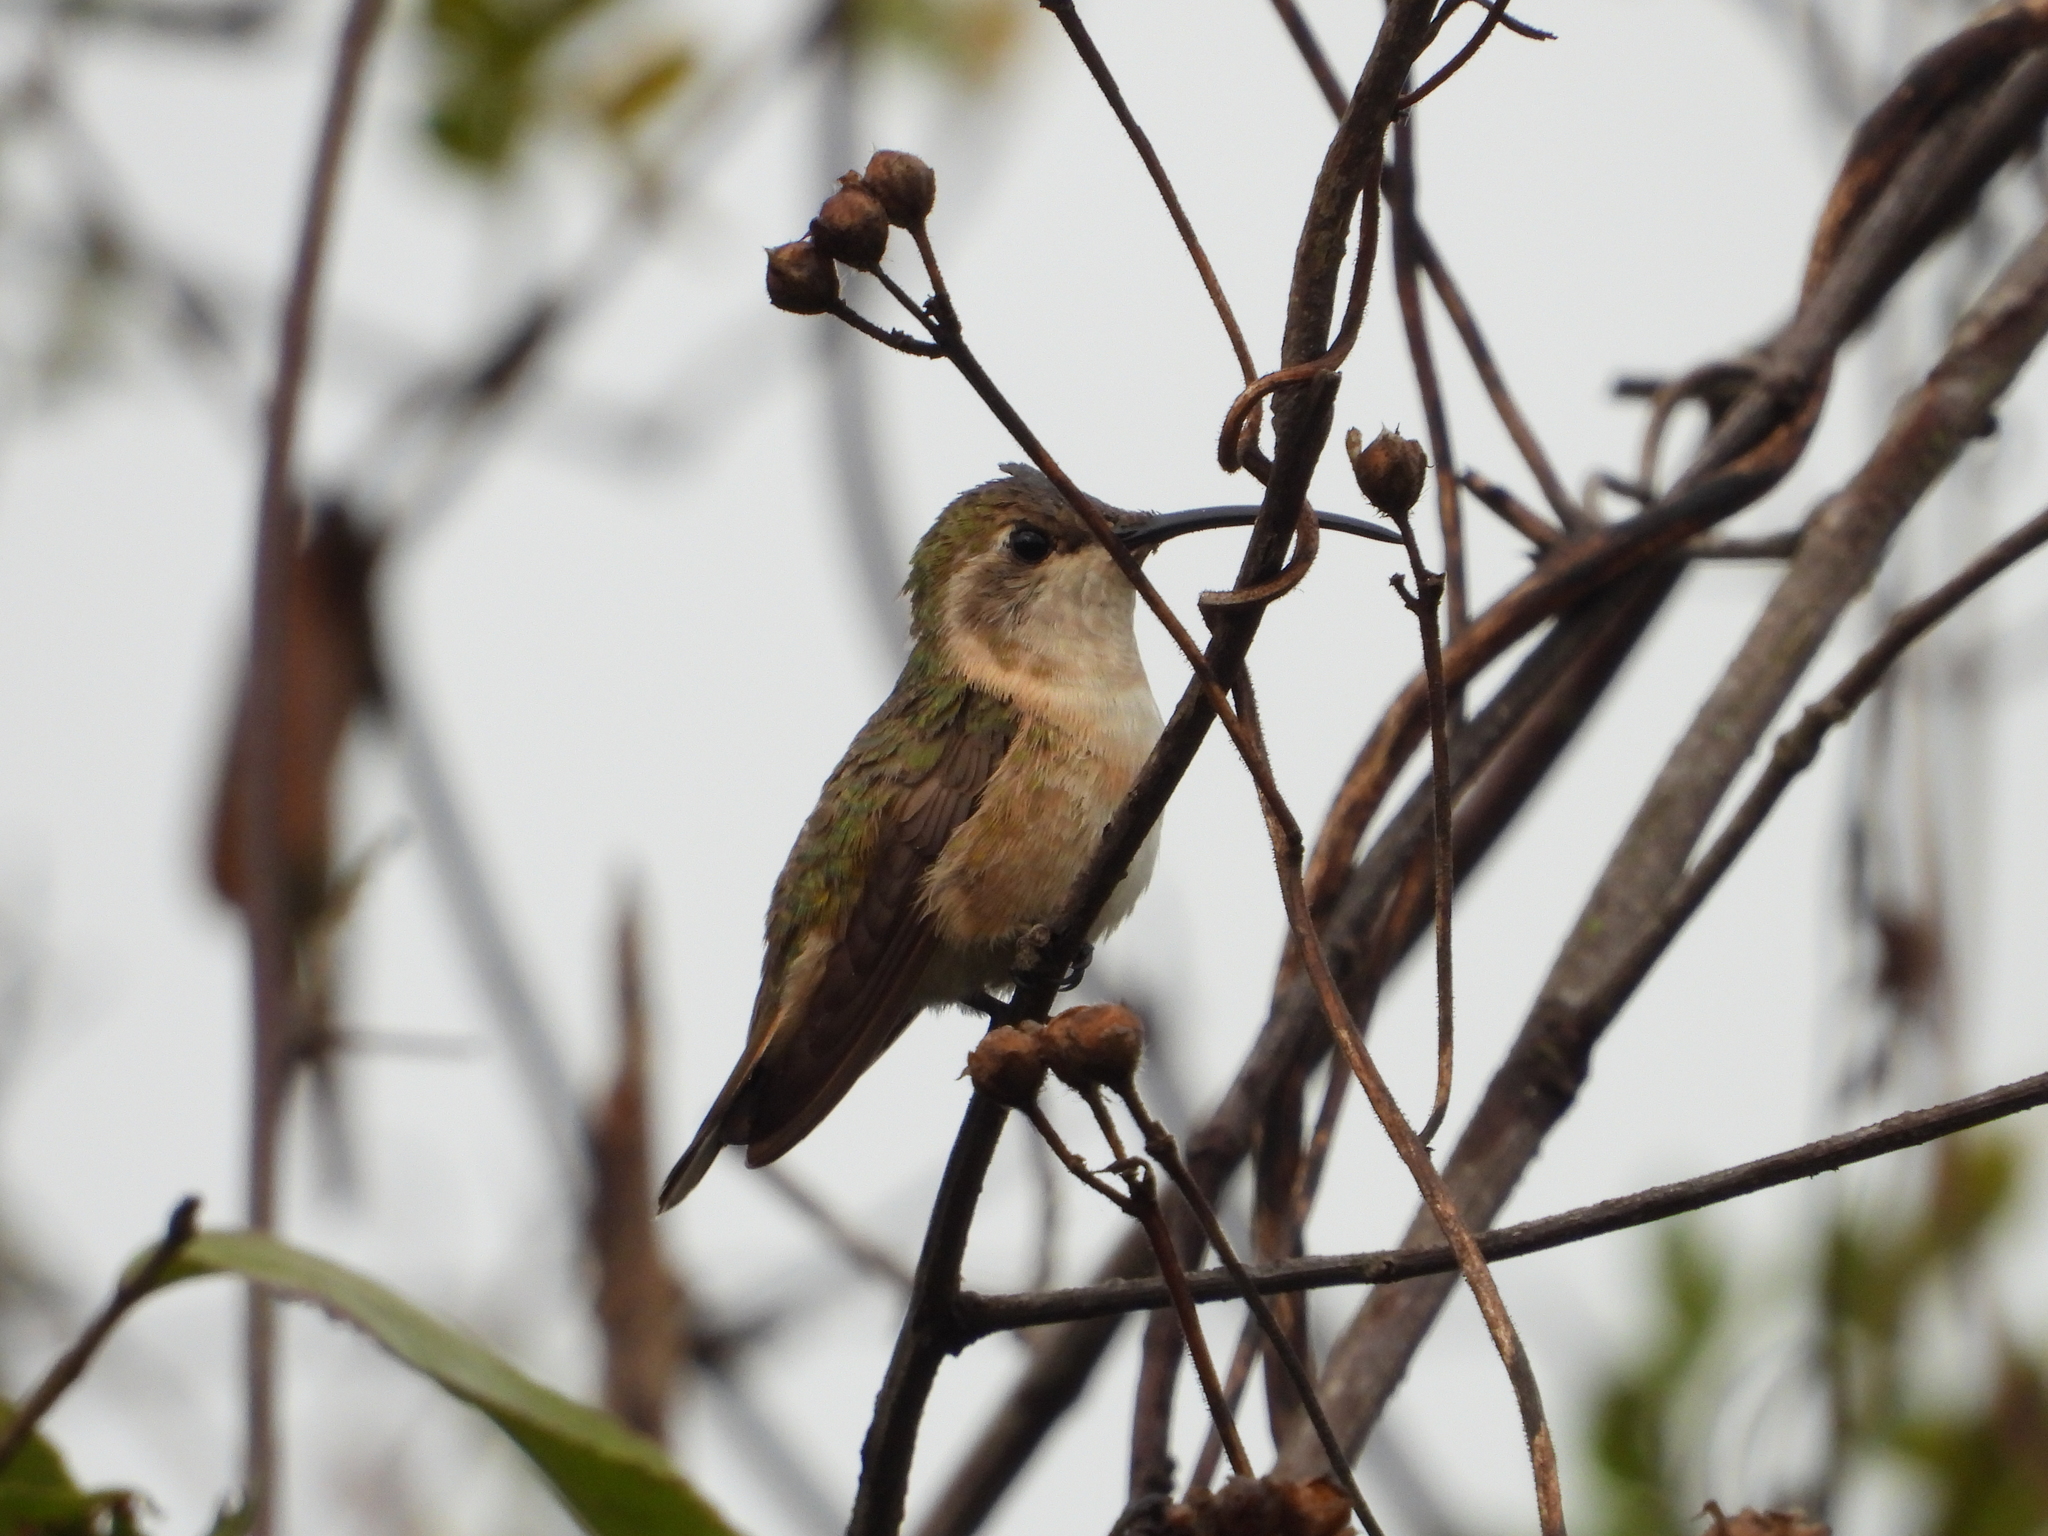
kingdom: Animalia
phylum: Chordata
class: Aves
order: Apodiformes
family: Trochilidae
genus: Doricha
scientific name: Doricha eliza
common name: Mexican sheartail
